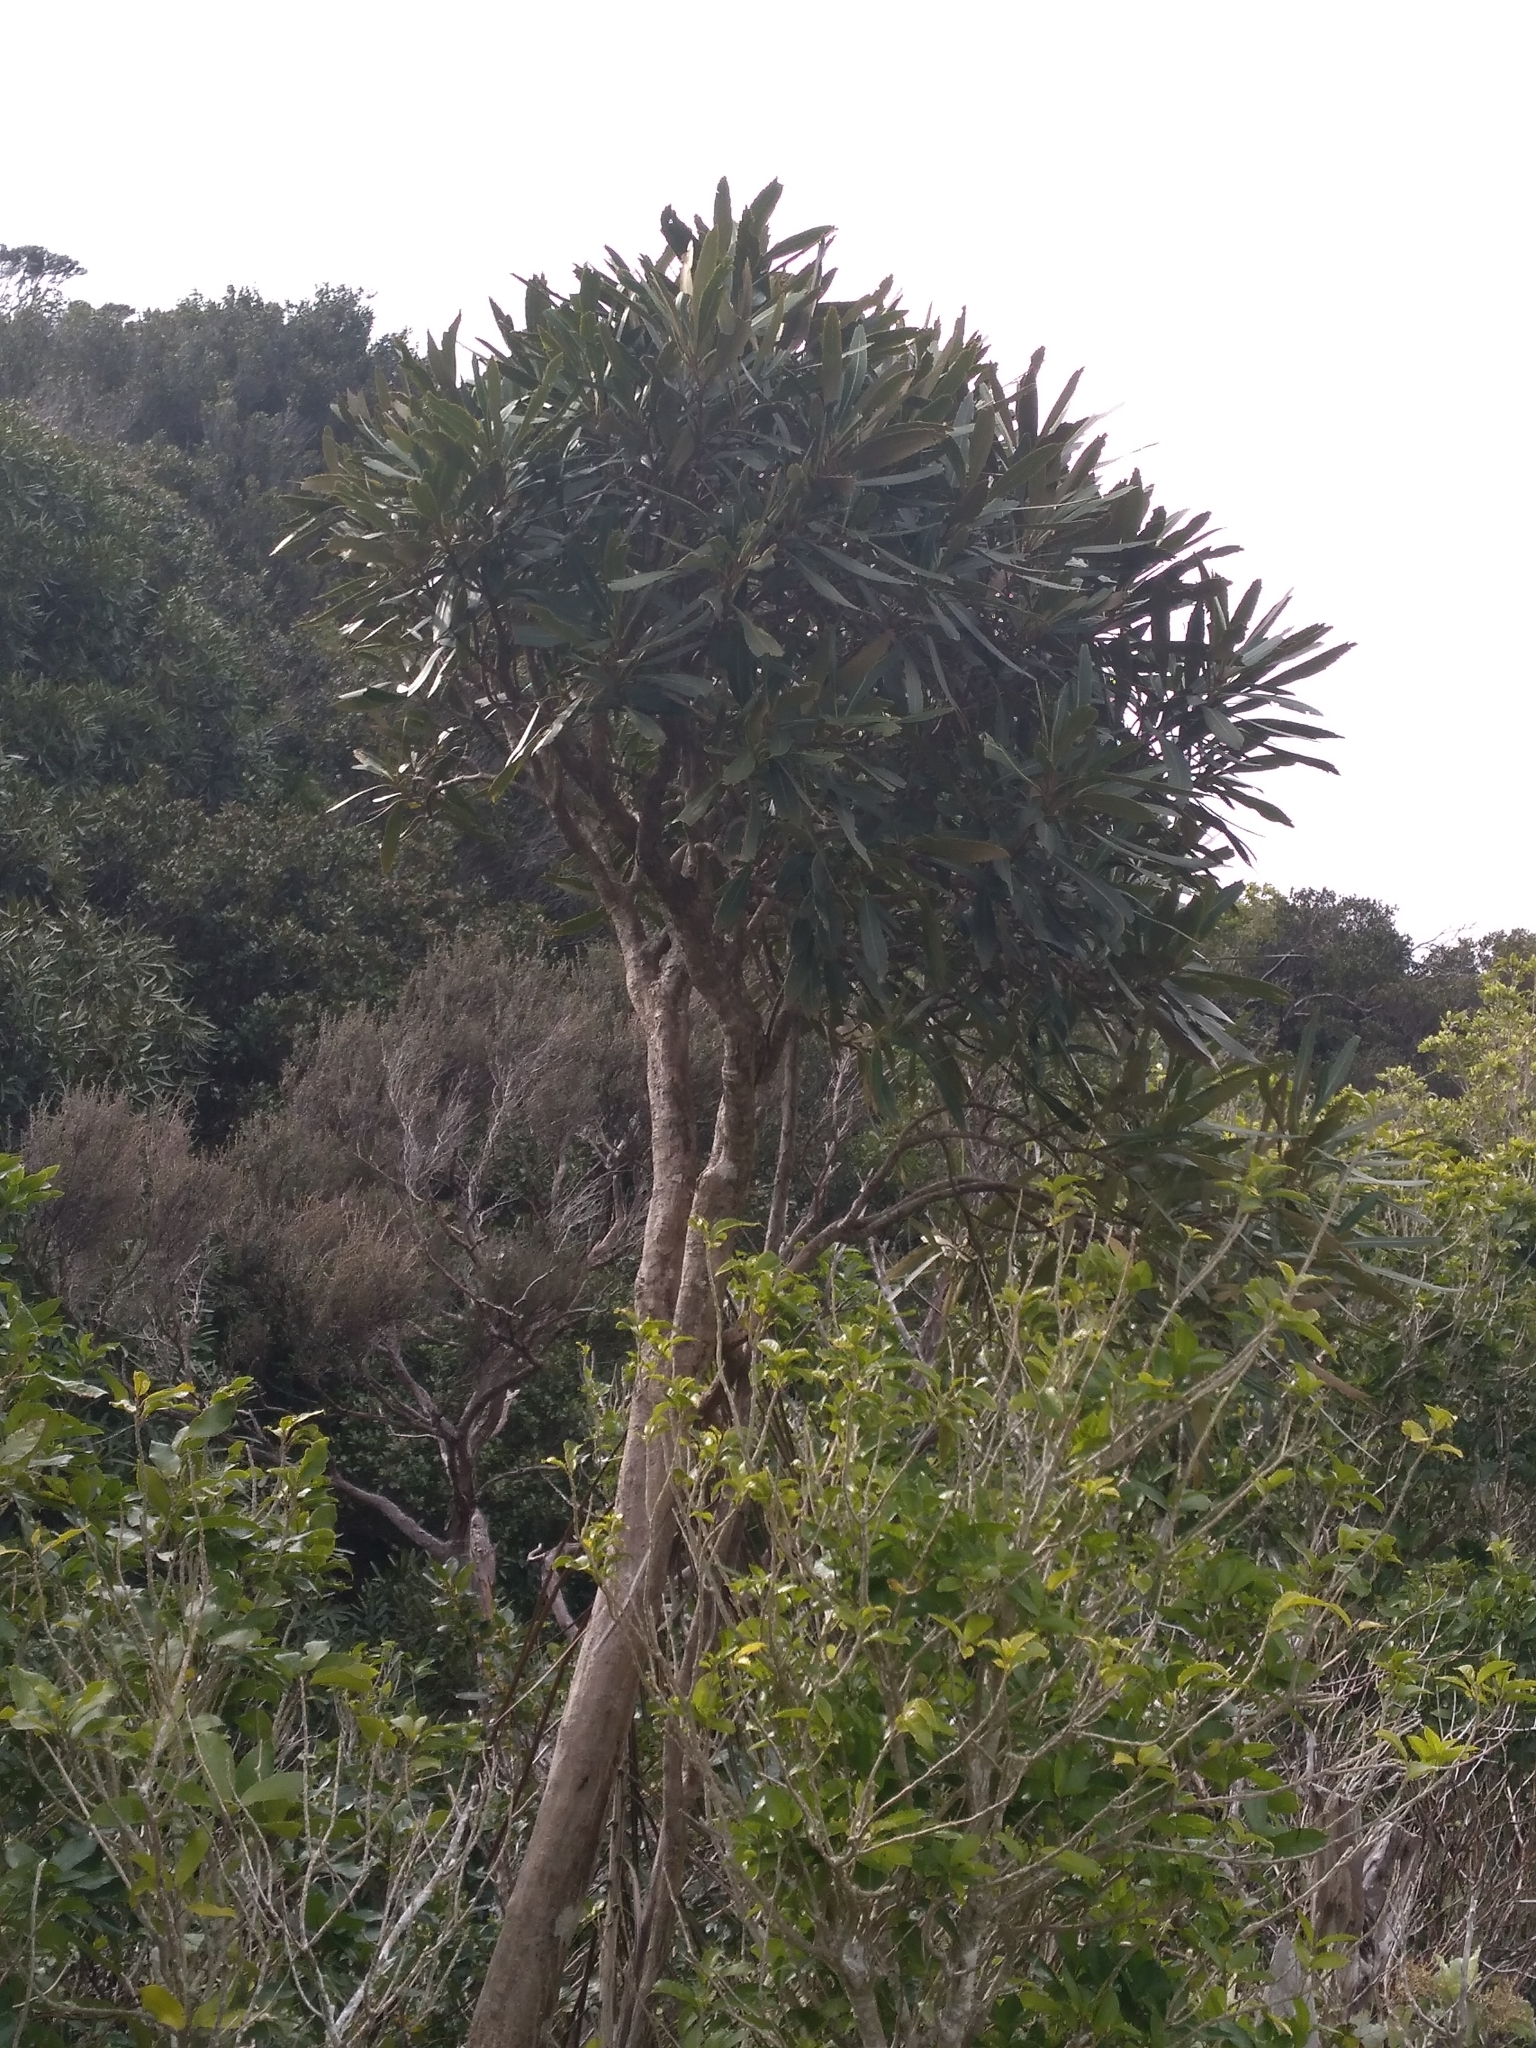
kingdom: Plantae
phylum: Tracheophyta
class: Magnoliopsida
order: Apiales
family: Araliaceae
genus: Pseudopanax
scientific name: Pseudopanax crassifolius
